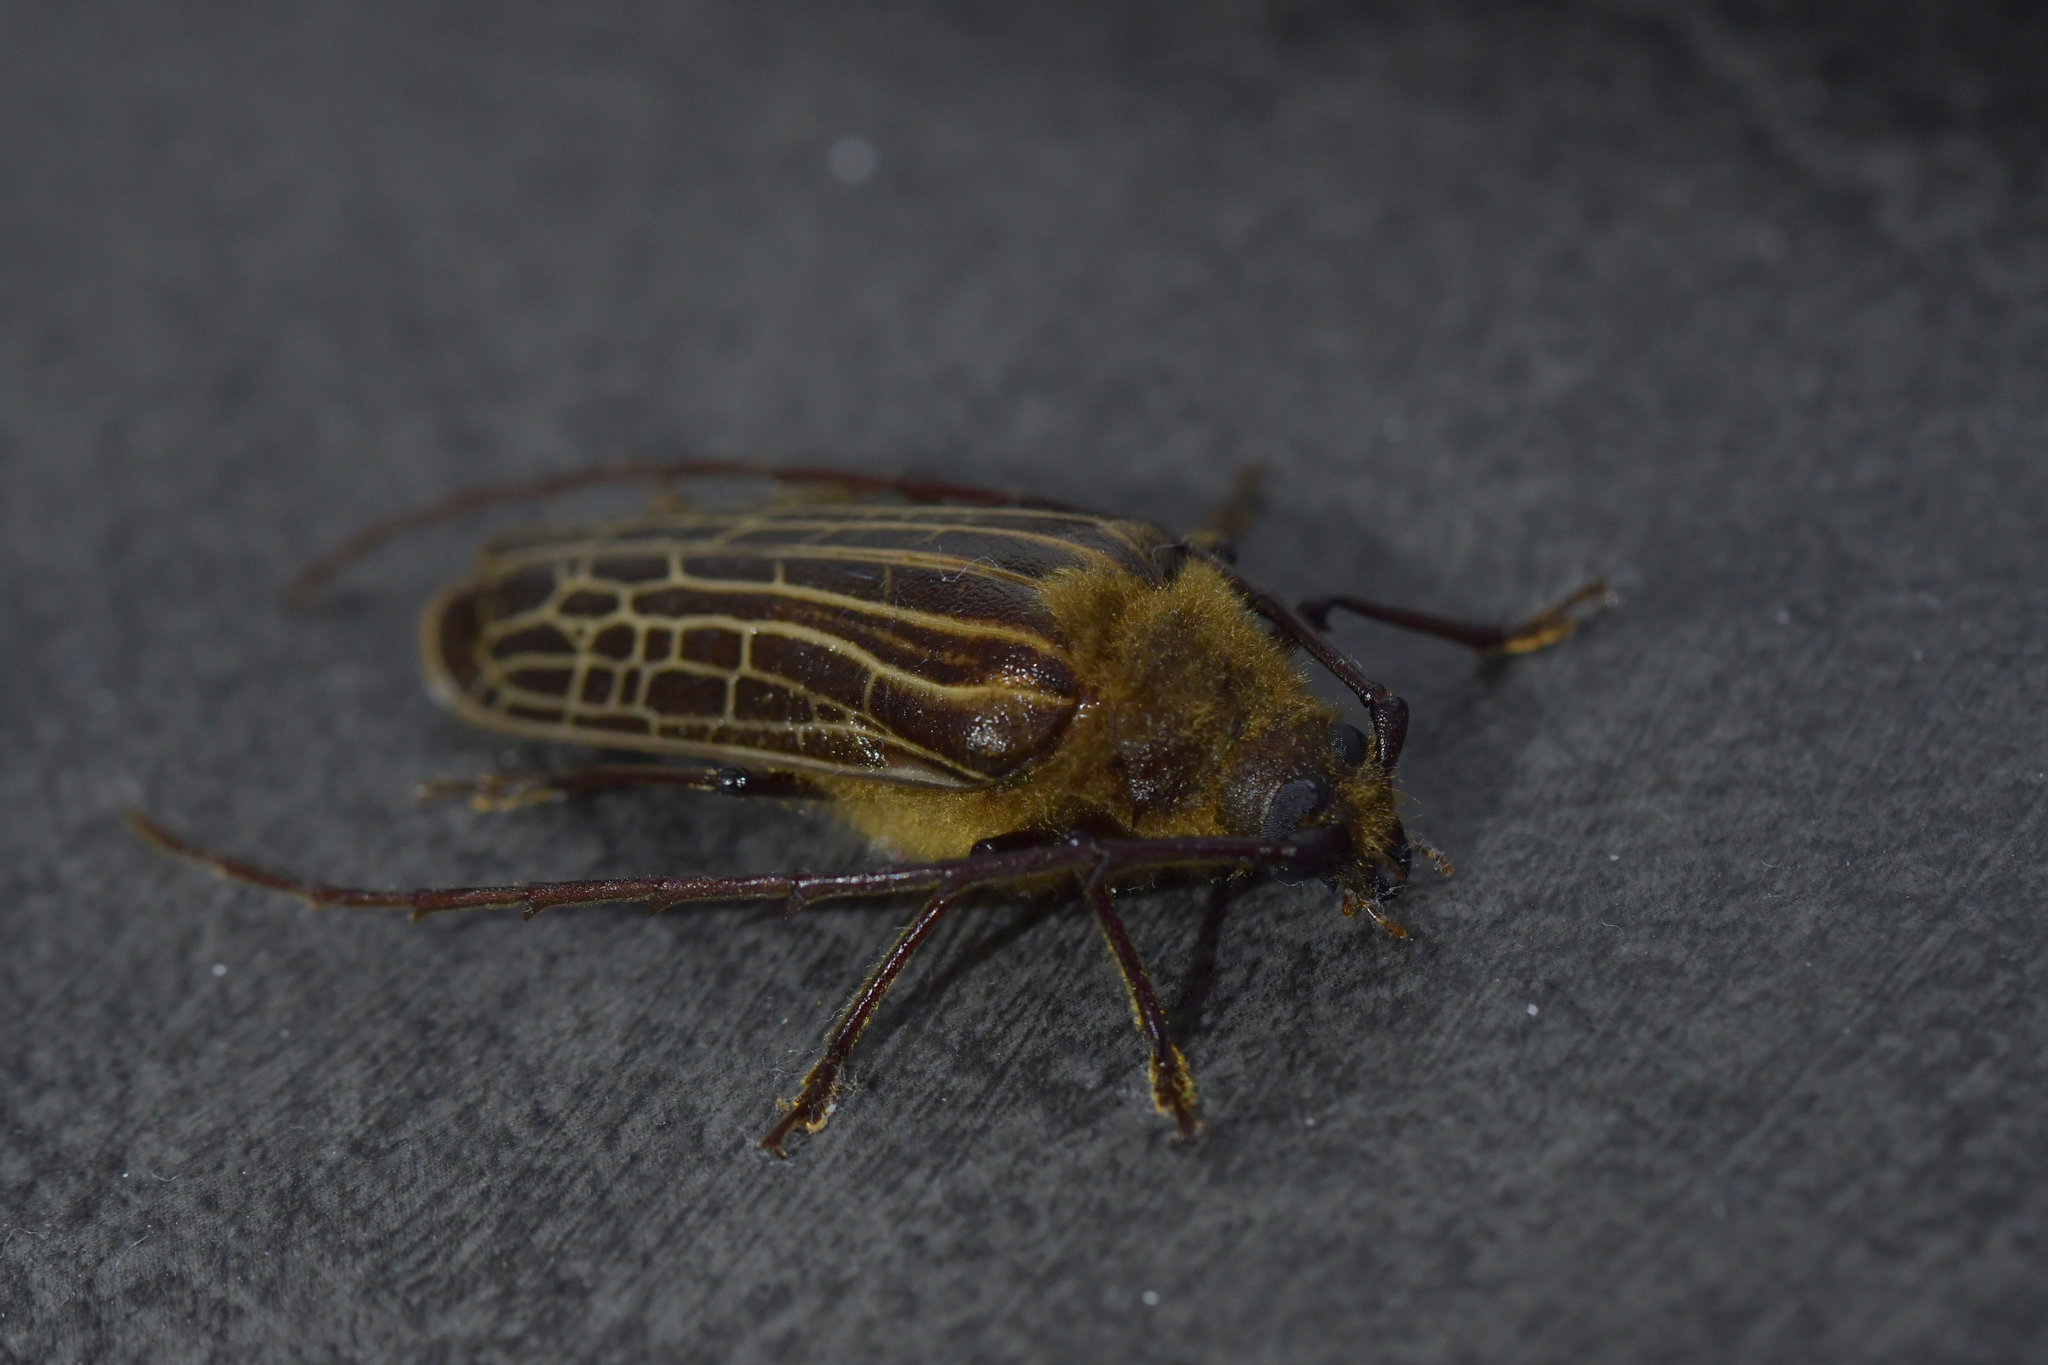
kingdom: Animalia
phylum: Arthropoda
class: Insecta
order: Coleoptera
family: Cerambycidae
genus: Prionoplus
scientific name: Prionoplus reticularis
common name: Huhu beetle
